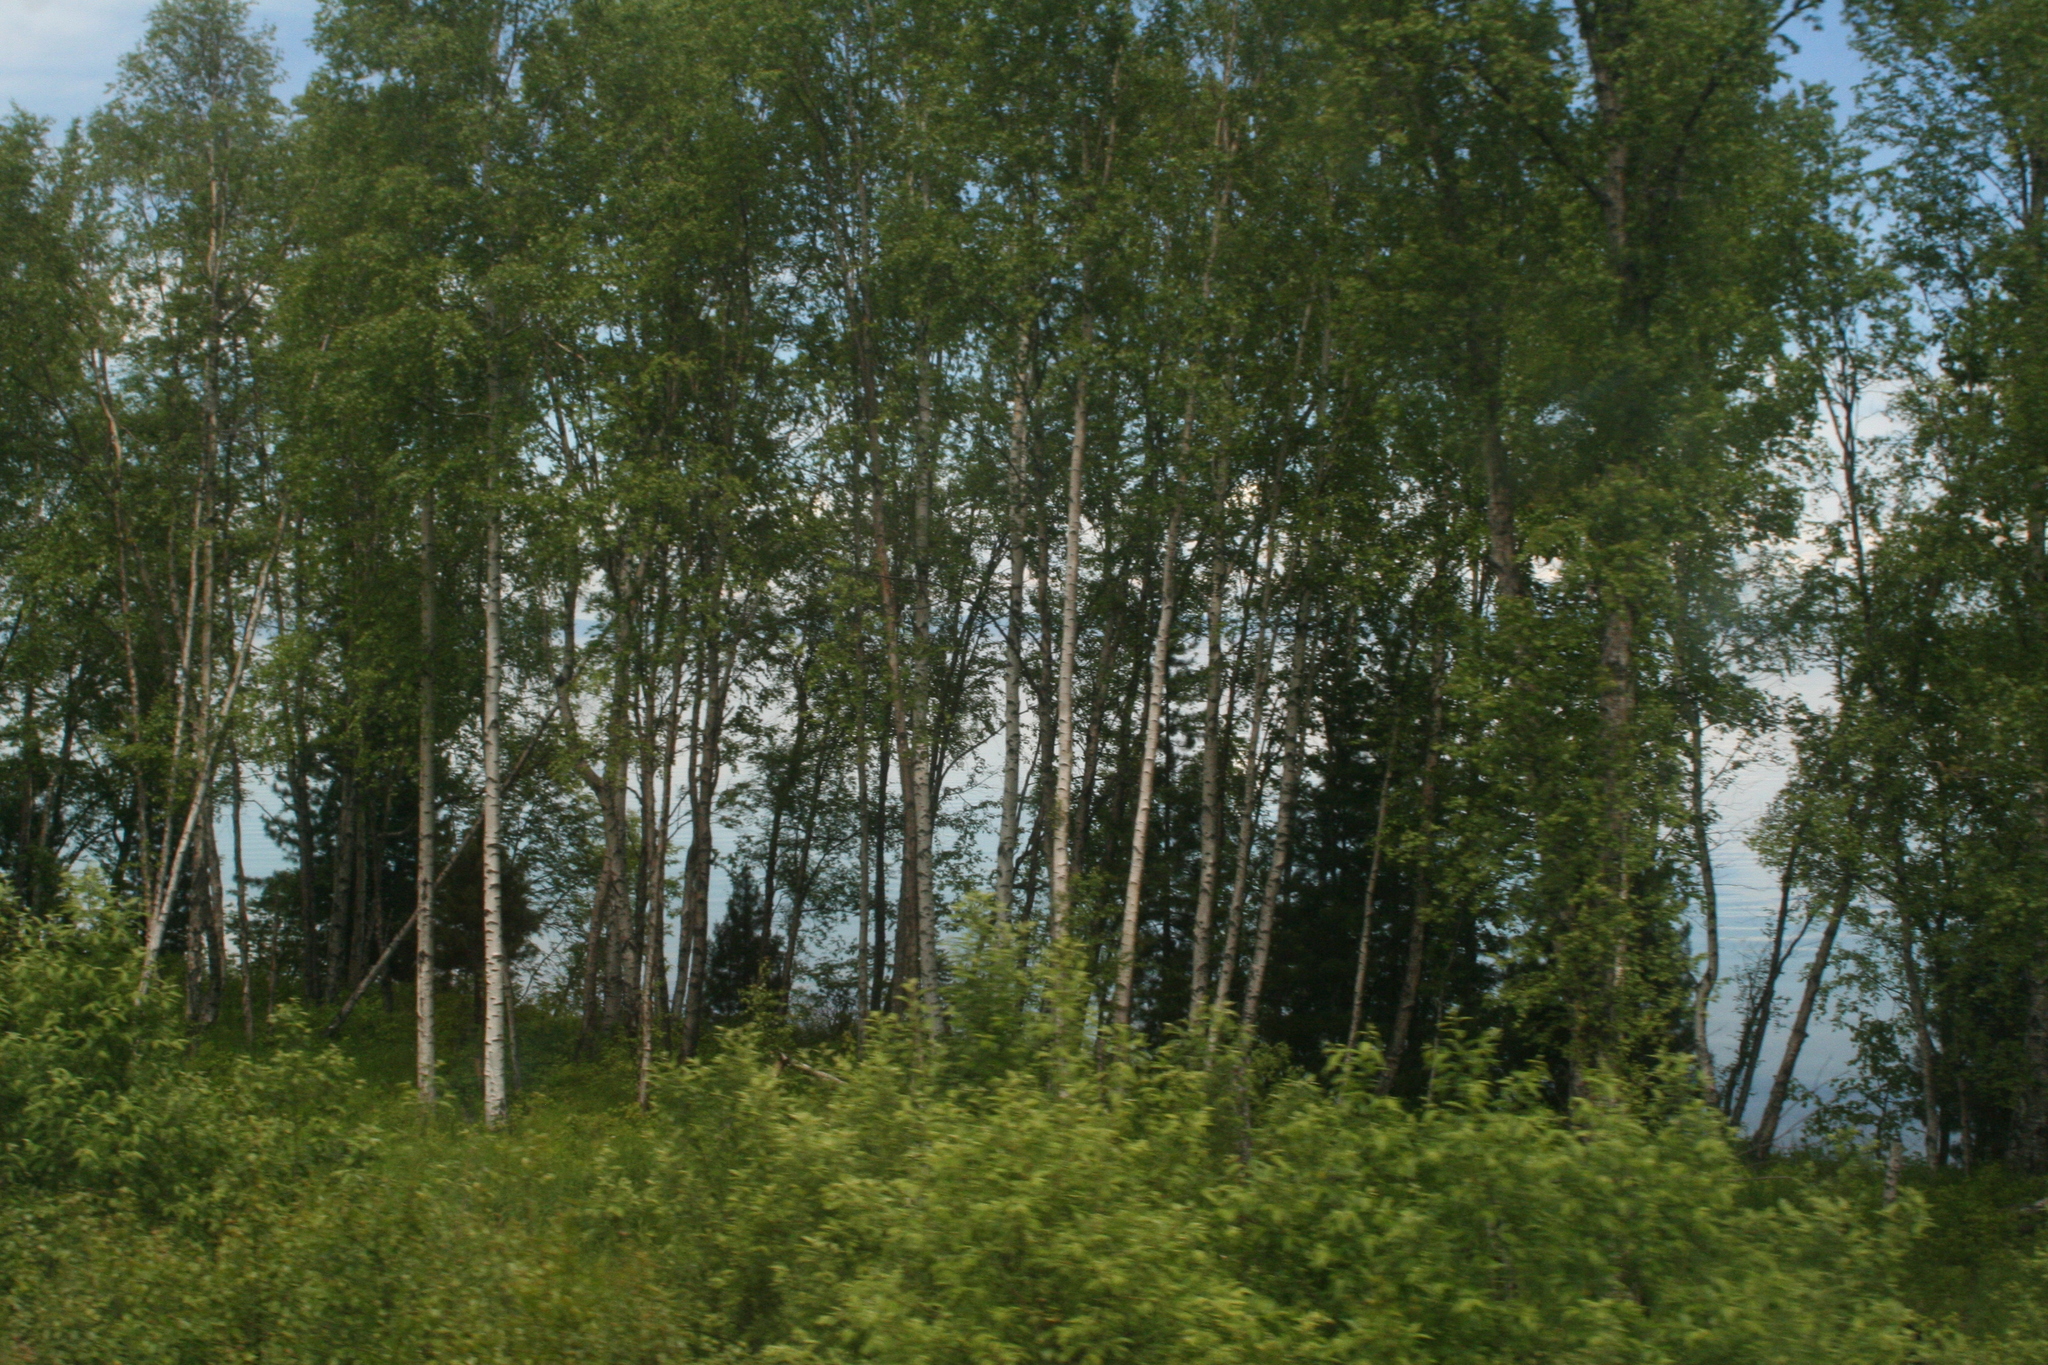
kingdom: Plantae
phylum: Tracheophyta
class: Magnoliopsida
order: Malpighiales
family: Salicaceae
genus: Populus
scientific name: Populus tremula
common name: European aspen
